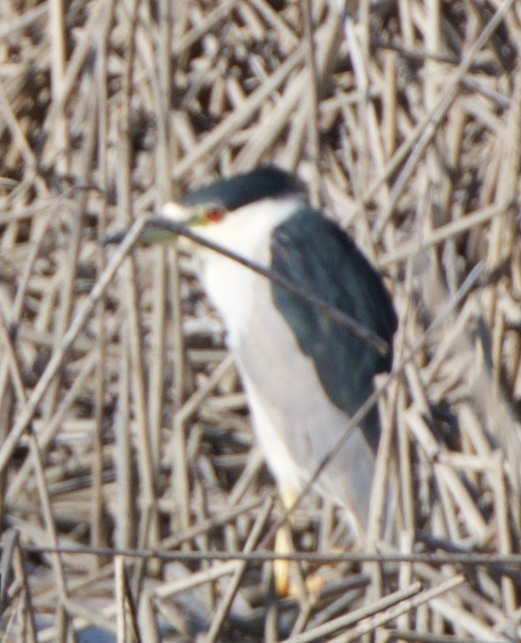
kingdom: Animalia
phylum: Chordata
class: Aves
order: Pelecaniformes
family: Ardeidae
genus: Nycticorax
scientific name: Nycticorax nycticorax
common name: Black-crowned night heron
